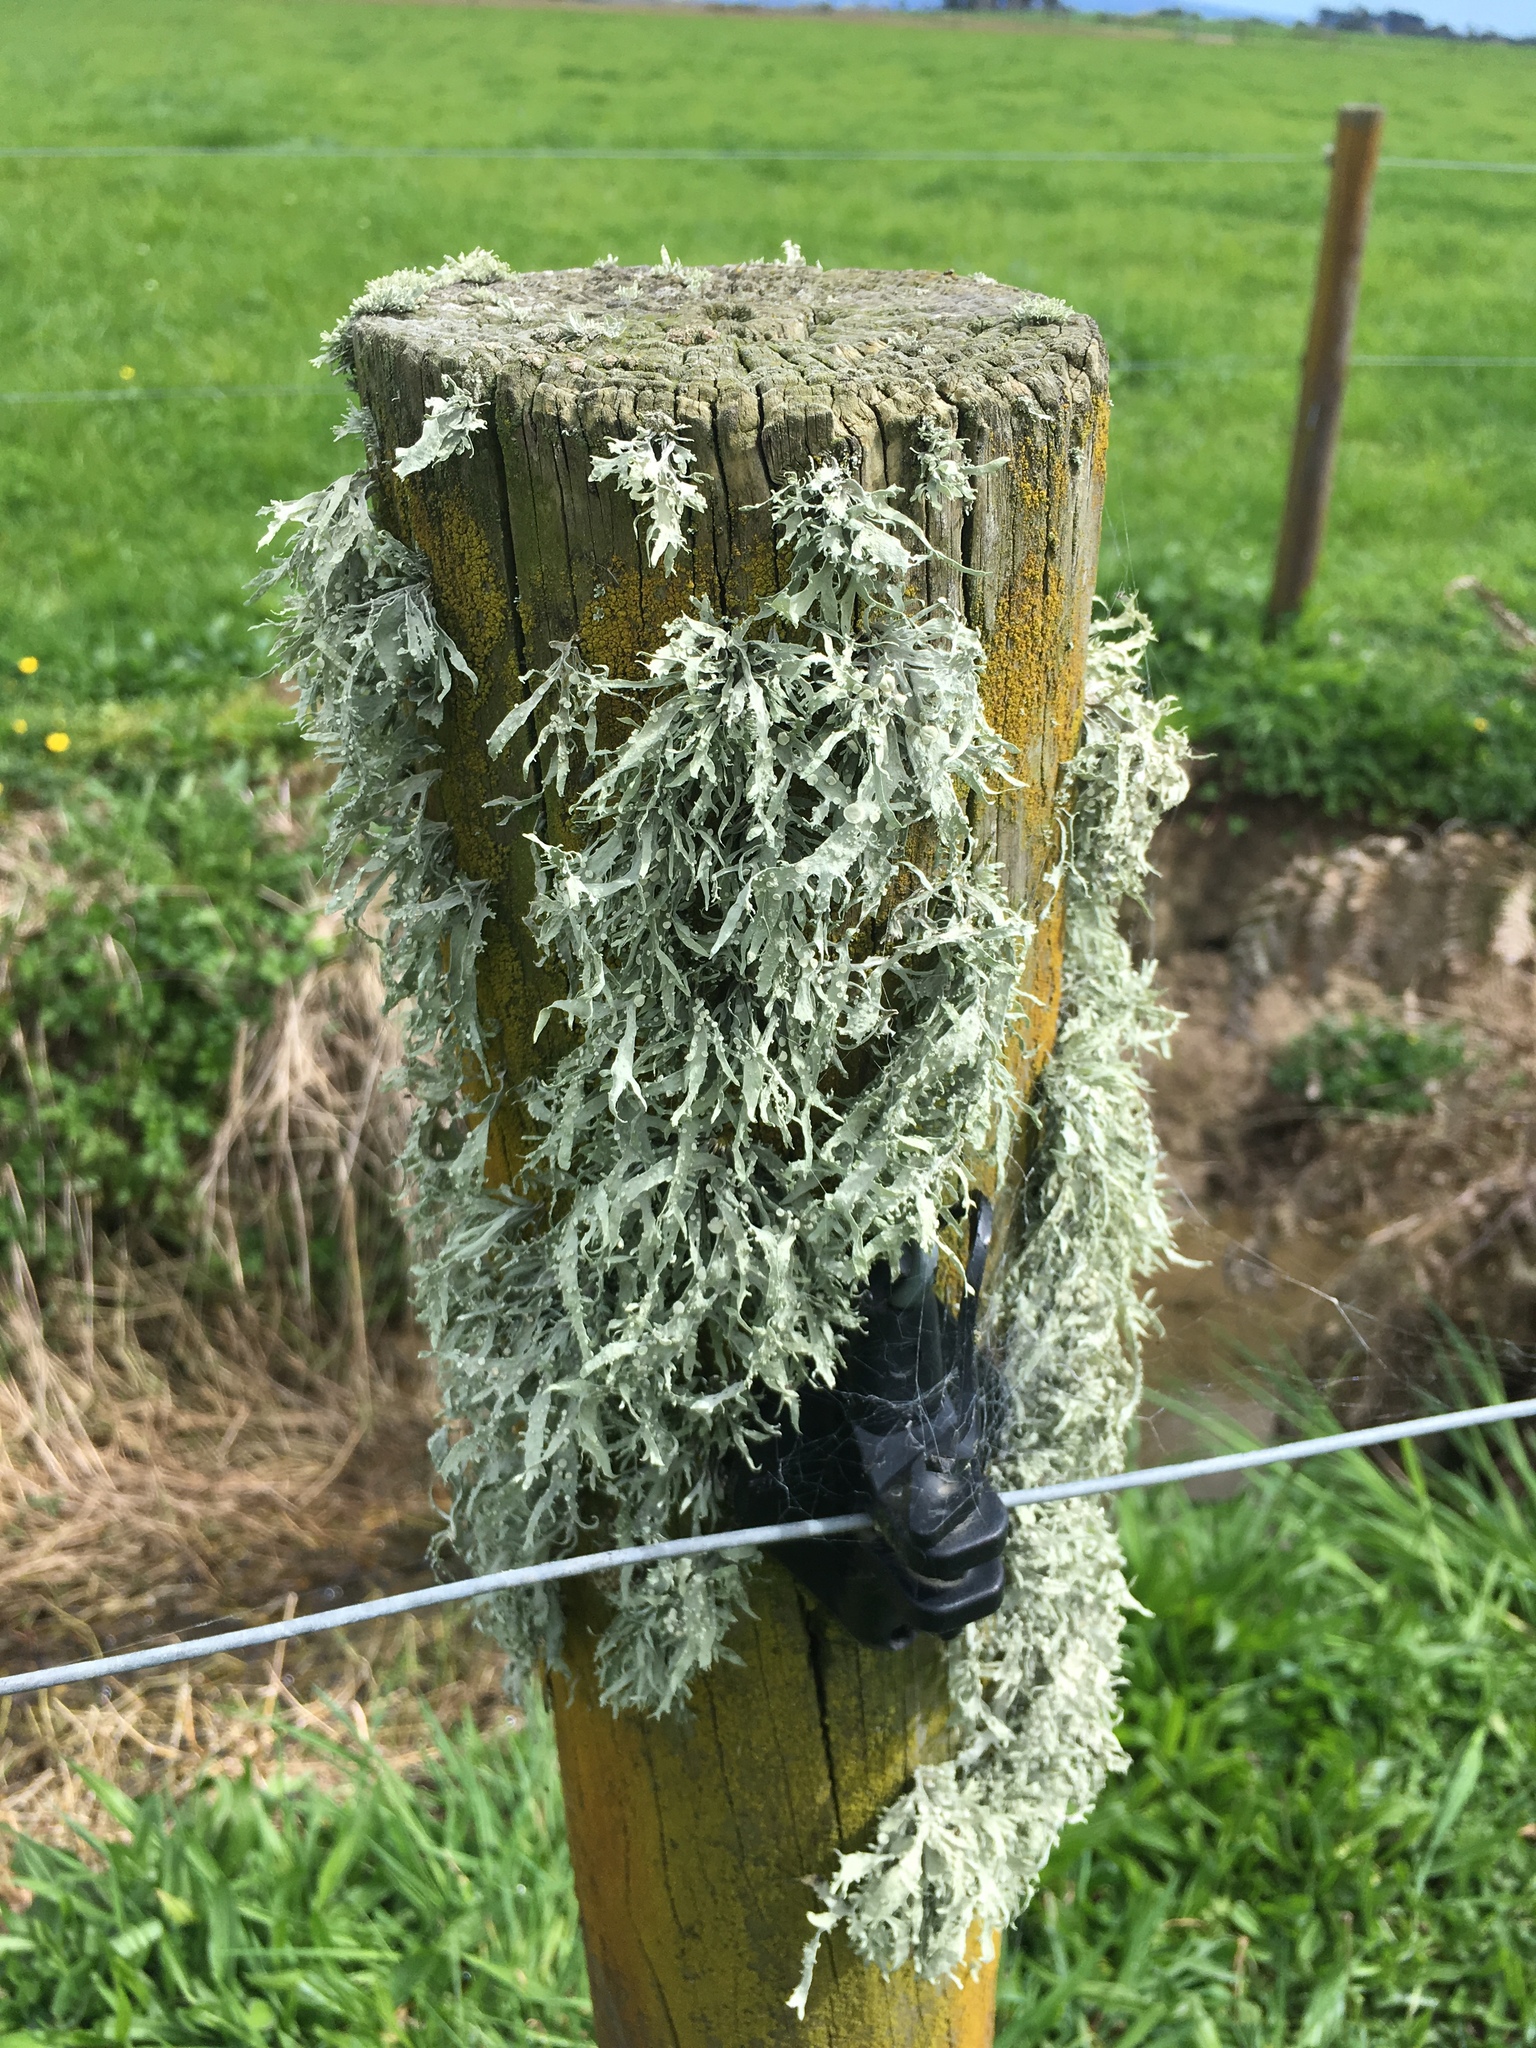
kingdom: Fungi
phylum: Ascomycota
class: Lecanoromycetes
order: Lecanorales
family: Ramalinaceae
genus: Ramalina
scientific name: Ramalina celastri
